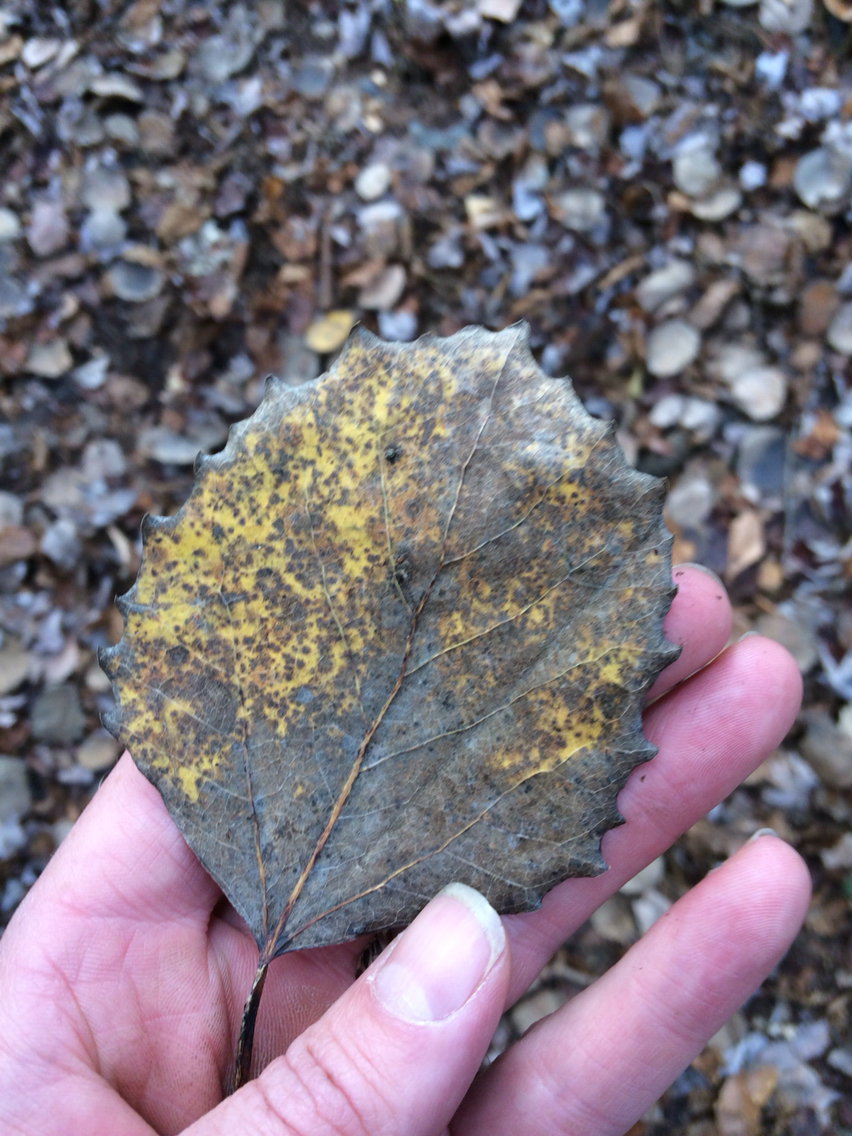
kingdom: Plantae
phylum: Tracheophyta
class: Magnoliopsida
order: Malpighiales
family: Salicaceae
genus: Populus
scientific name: Populus grandidentata
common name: Bigtooth aspen
